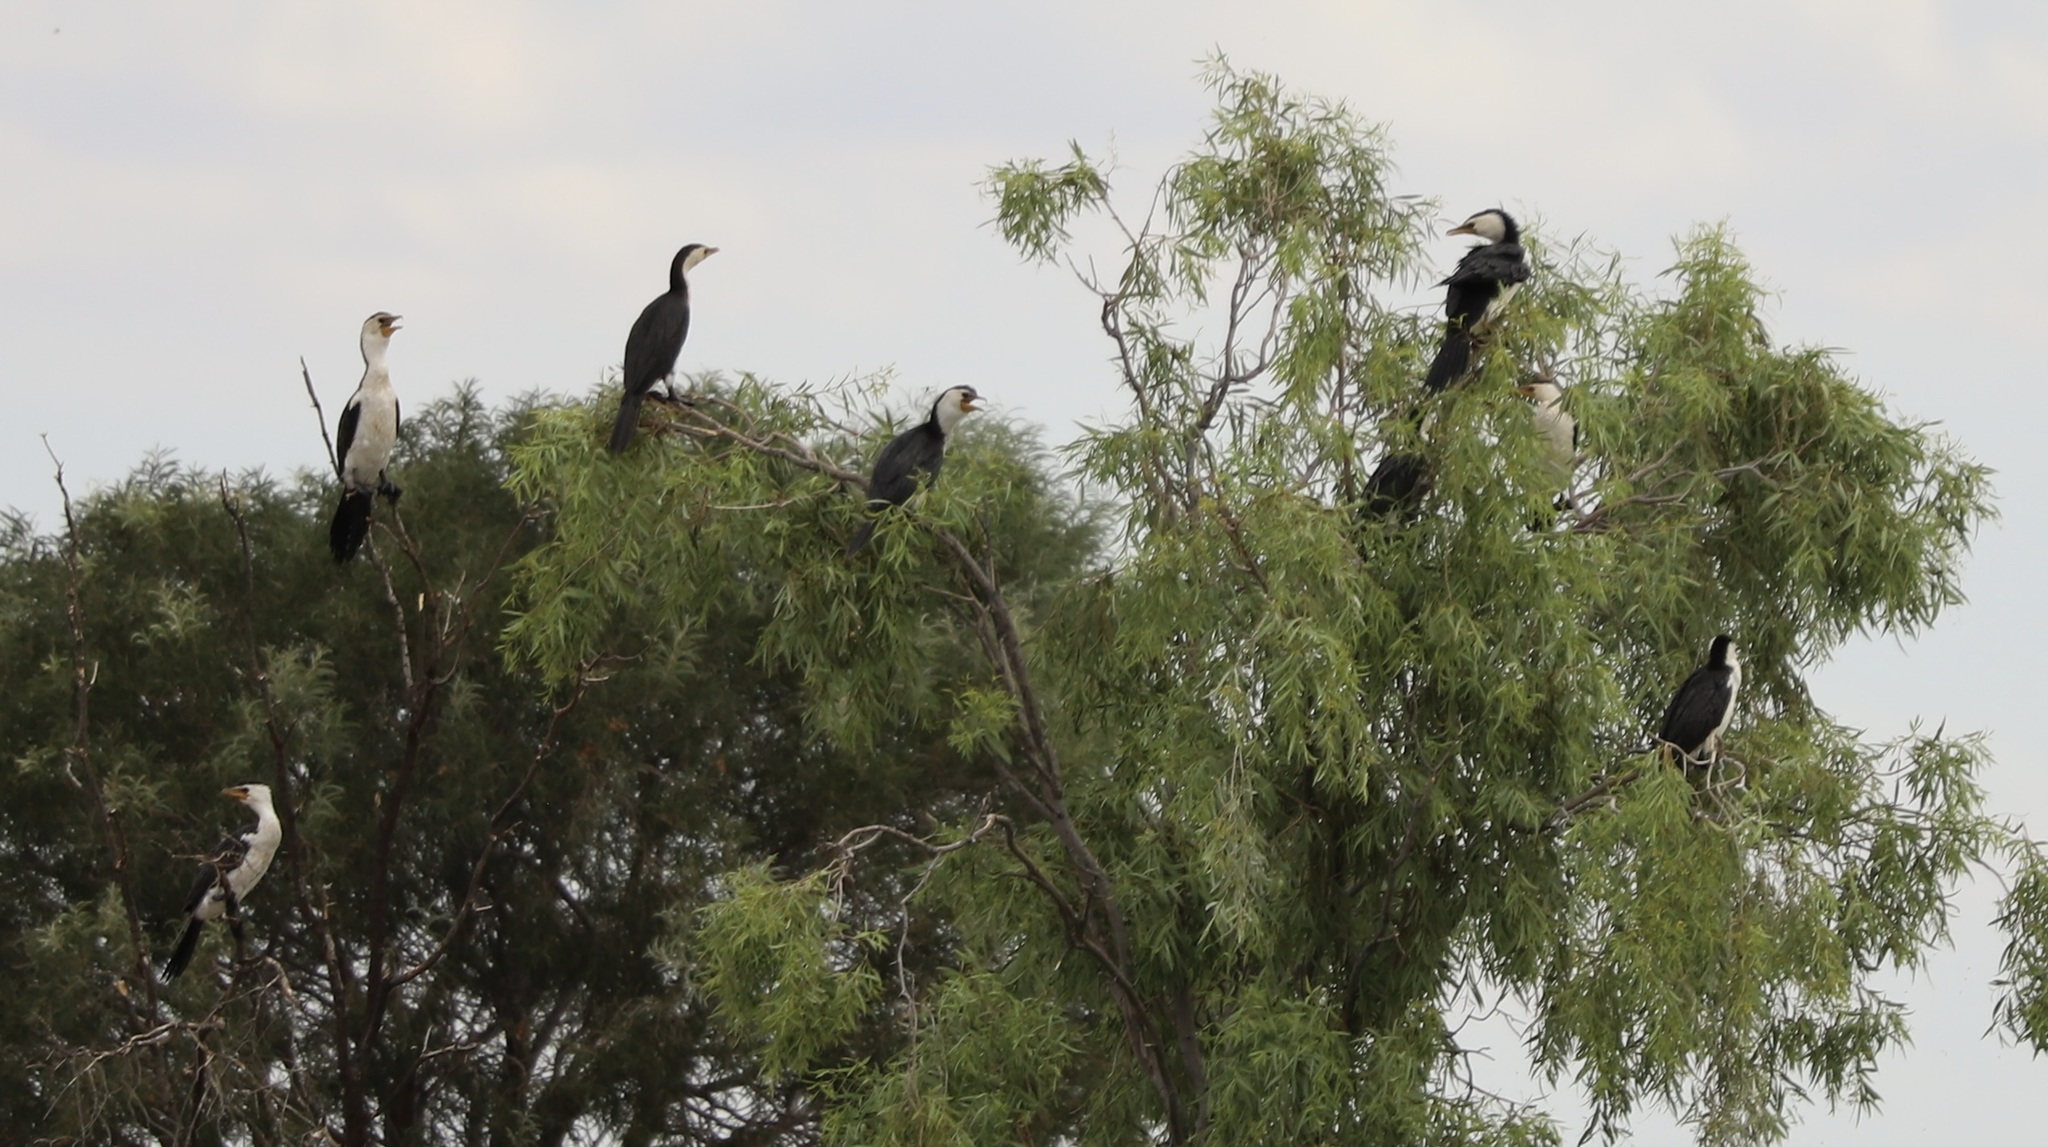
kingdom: Animalia
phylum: Chordata
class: Aves
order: Suliformes
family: Phalacrocoracidae
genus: Microcarbo
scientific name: Microcarbo melanoleucos
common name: Little pied cormorant
